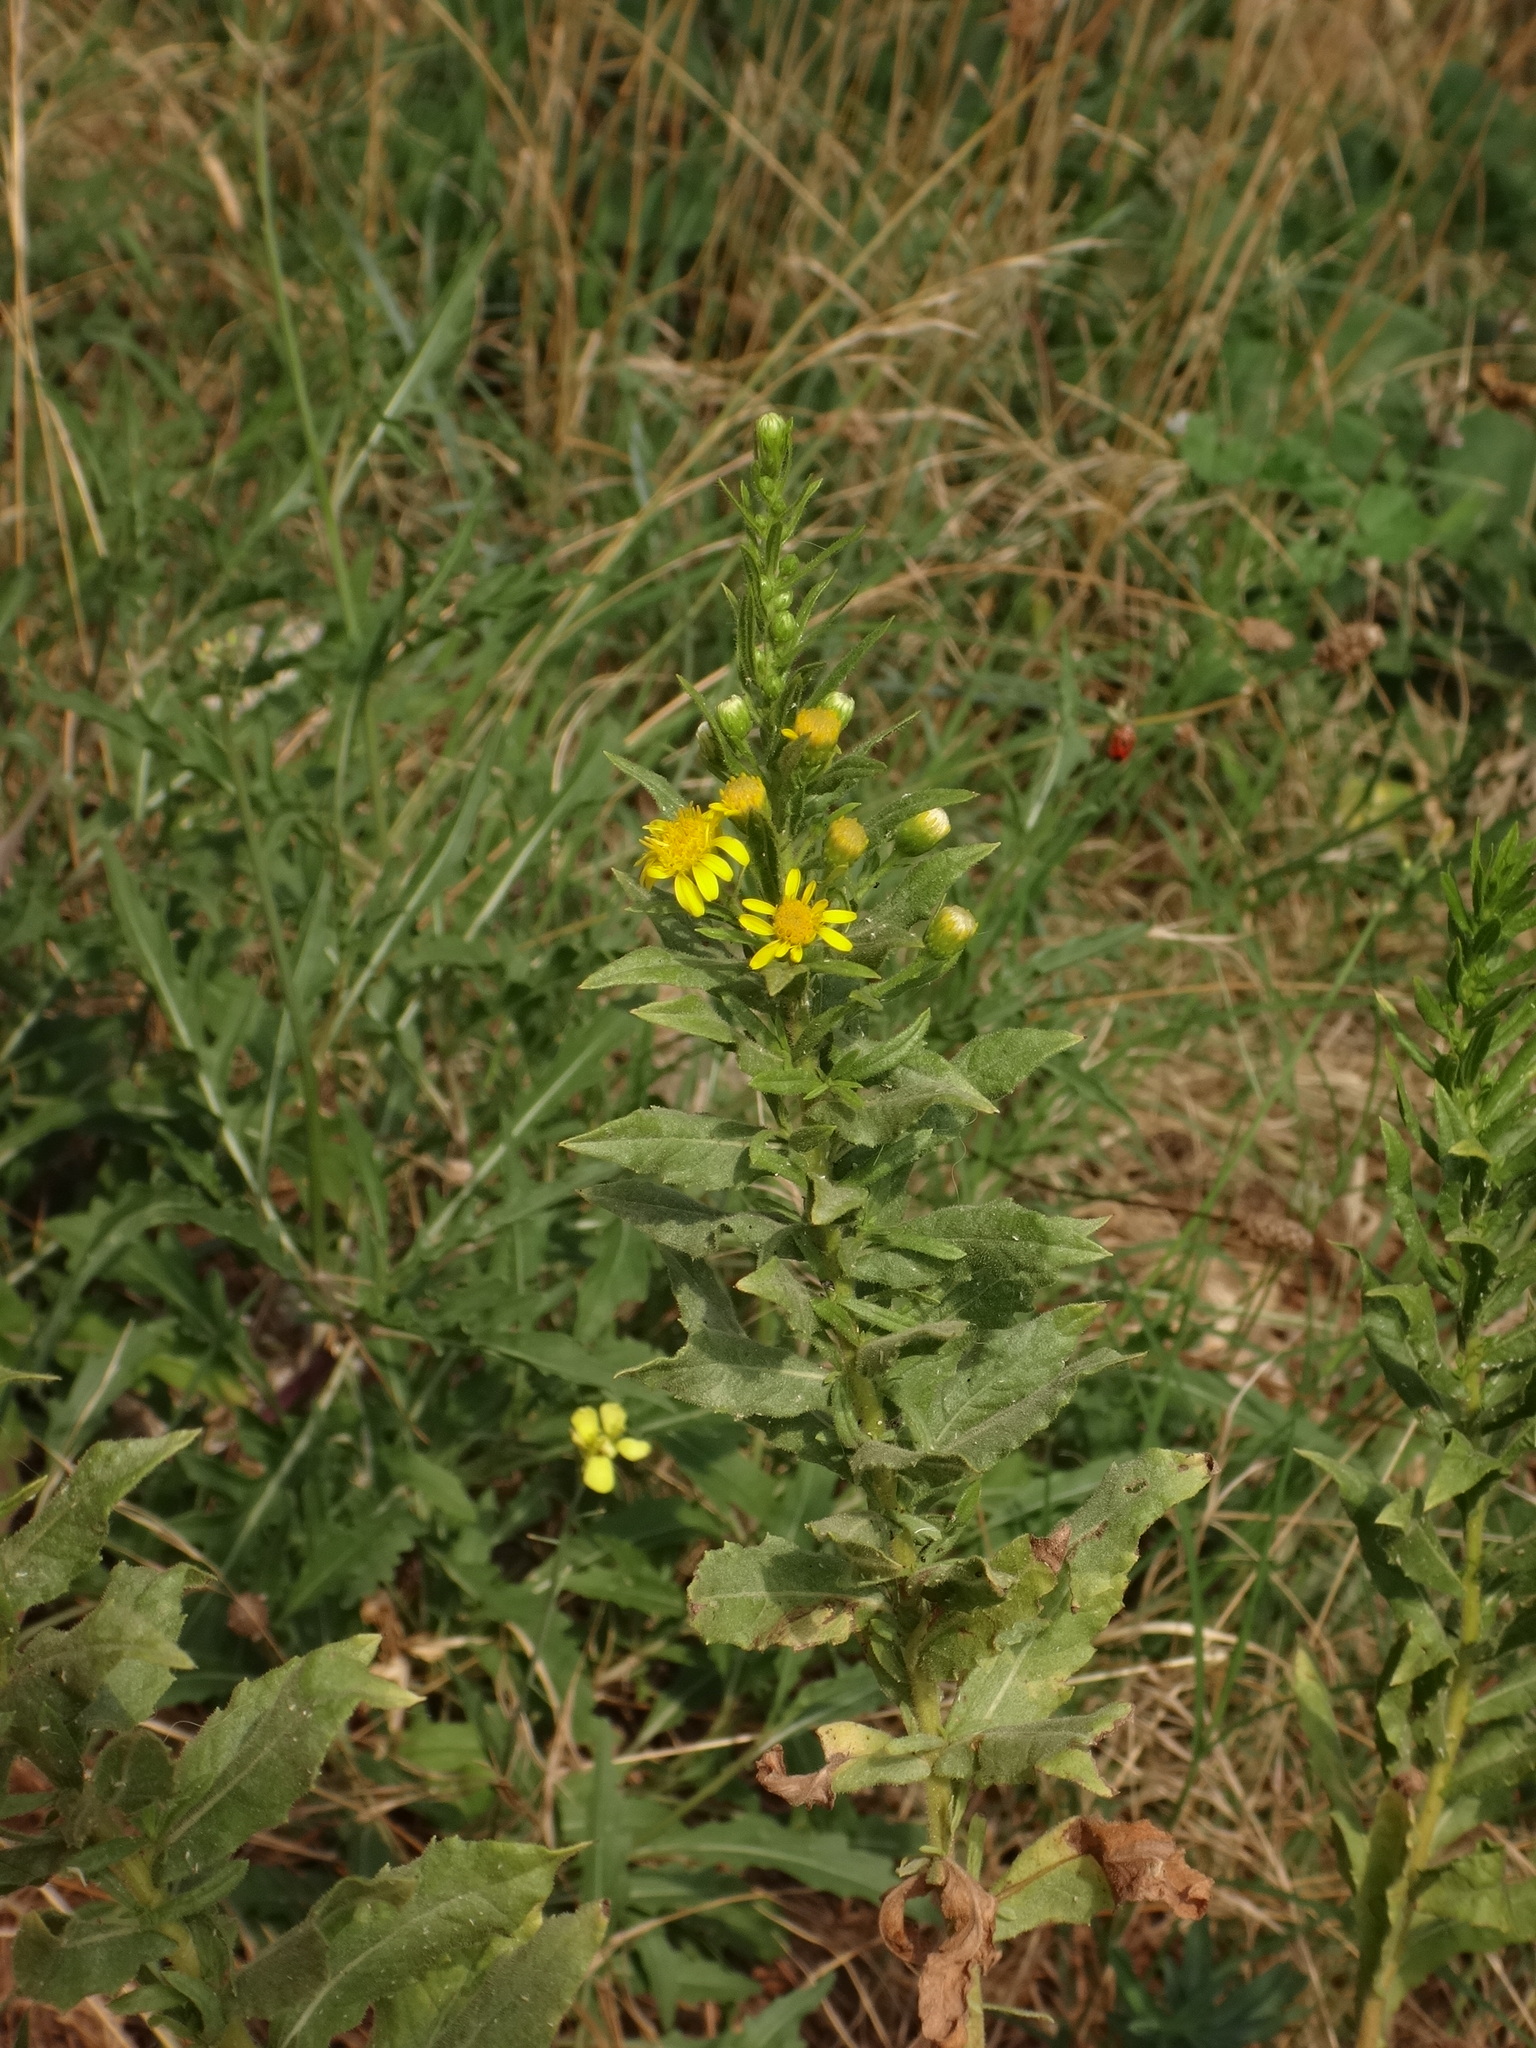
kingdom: Plantae
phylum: Tracheophyta
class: Magnoliopsida
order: Asterales
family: Asteraceae
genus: Dittrichia
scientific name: Dittrichia viscosa
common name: Woody fleabane
